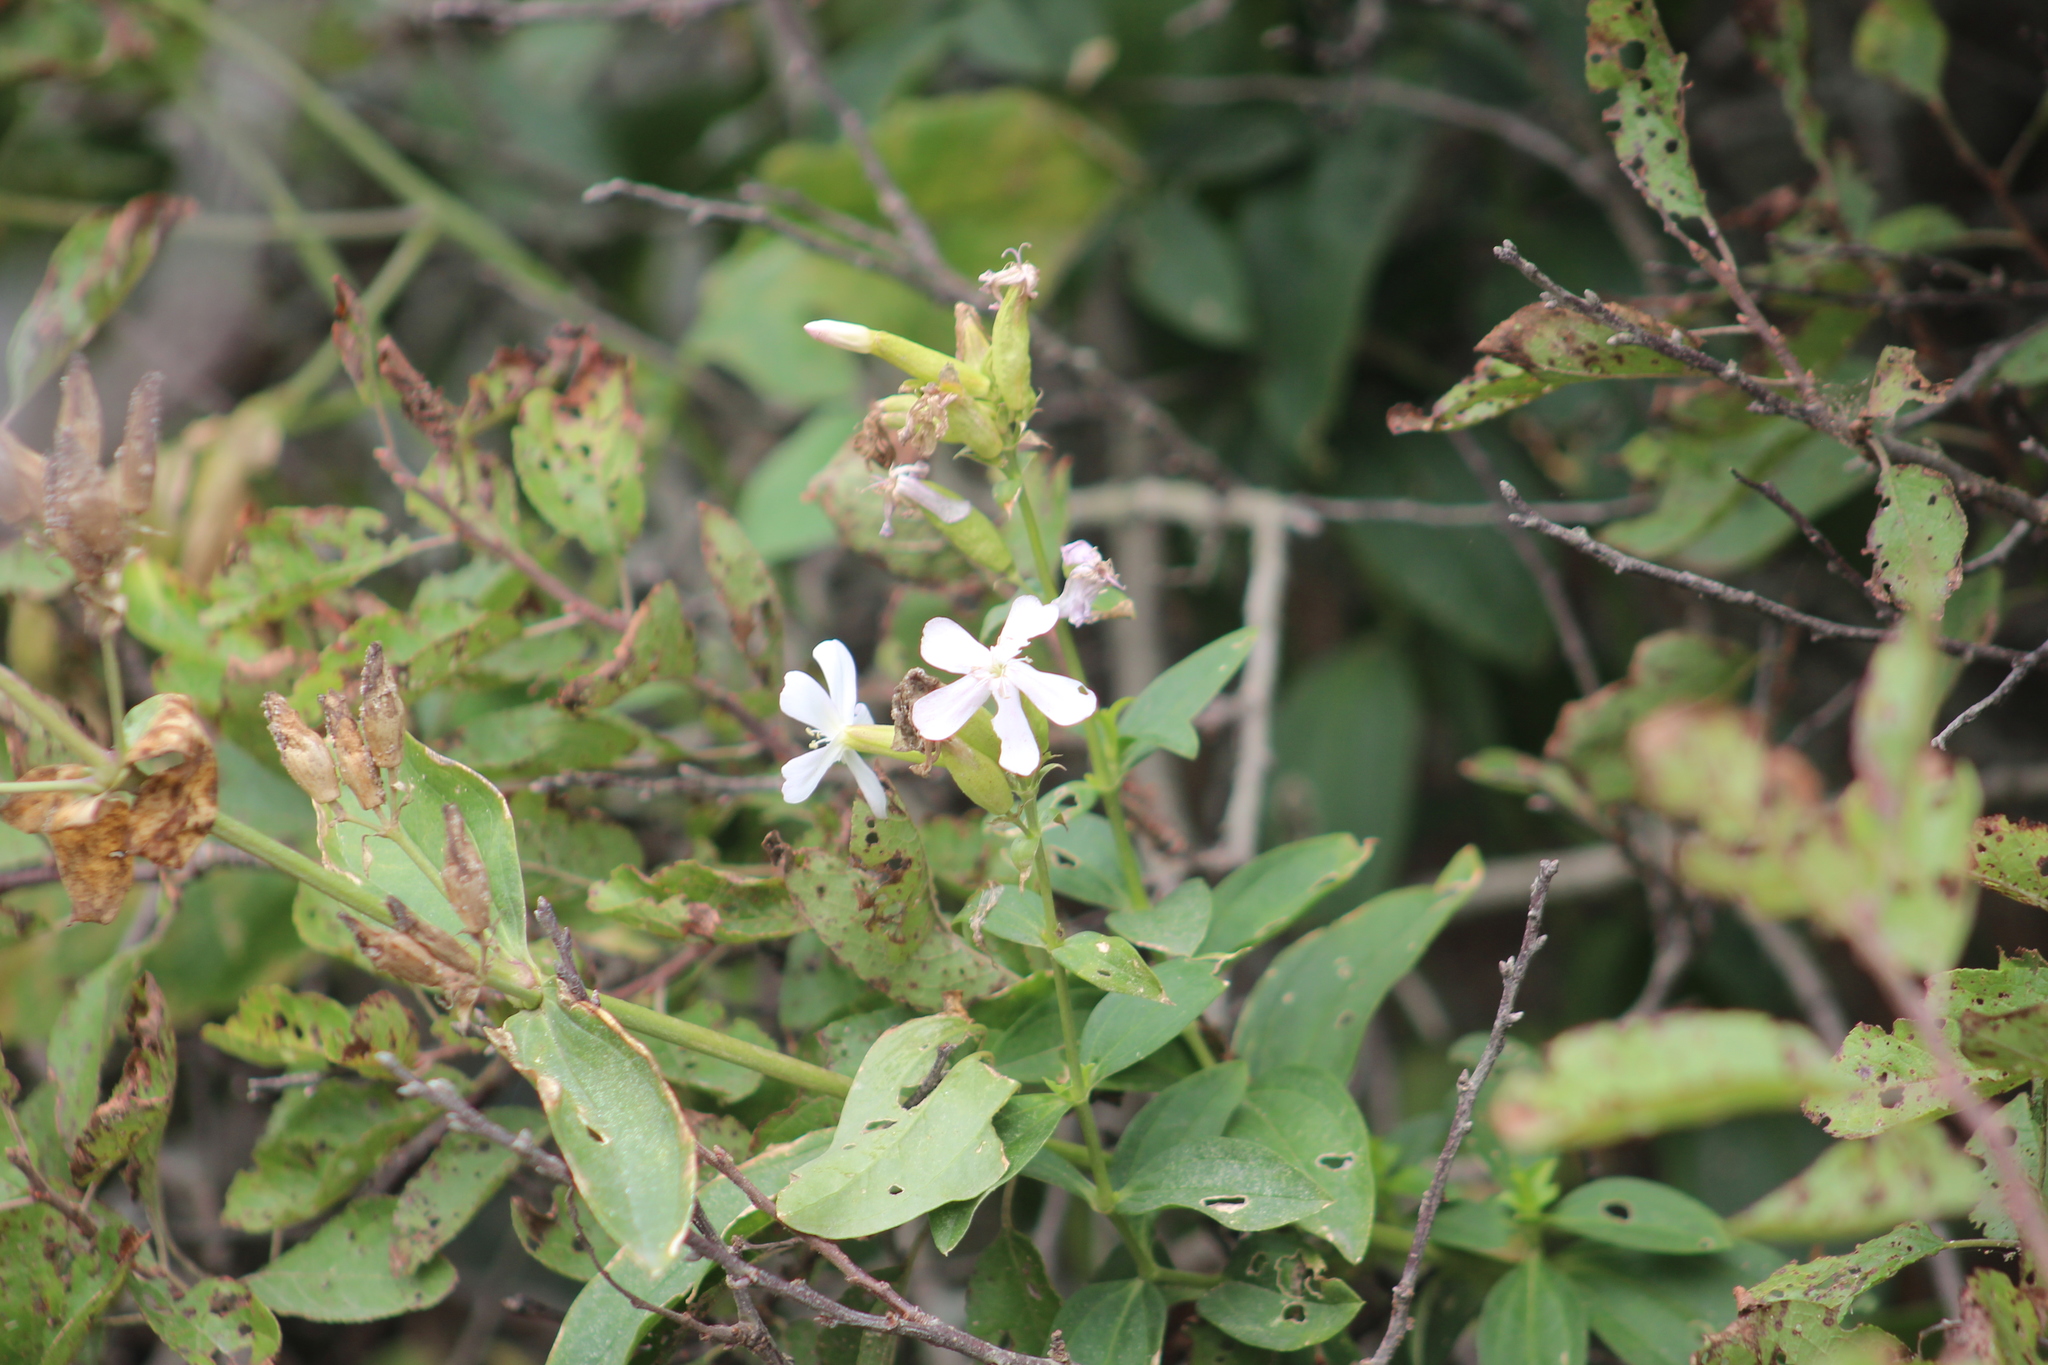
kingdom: Plantae
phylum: Tracheophyta
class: Magnoliopsida
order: Caryophyllales
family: Caryophyllaceae
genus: Saponaria
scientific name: Saponaria officinalis
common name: Soapwort
